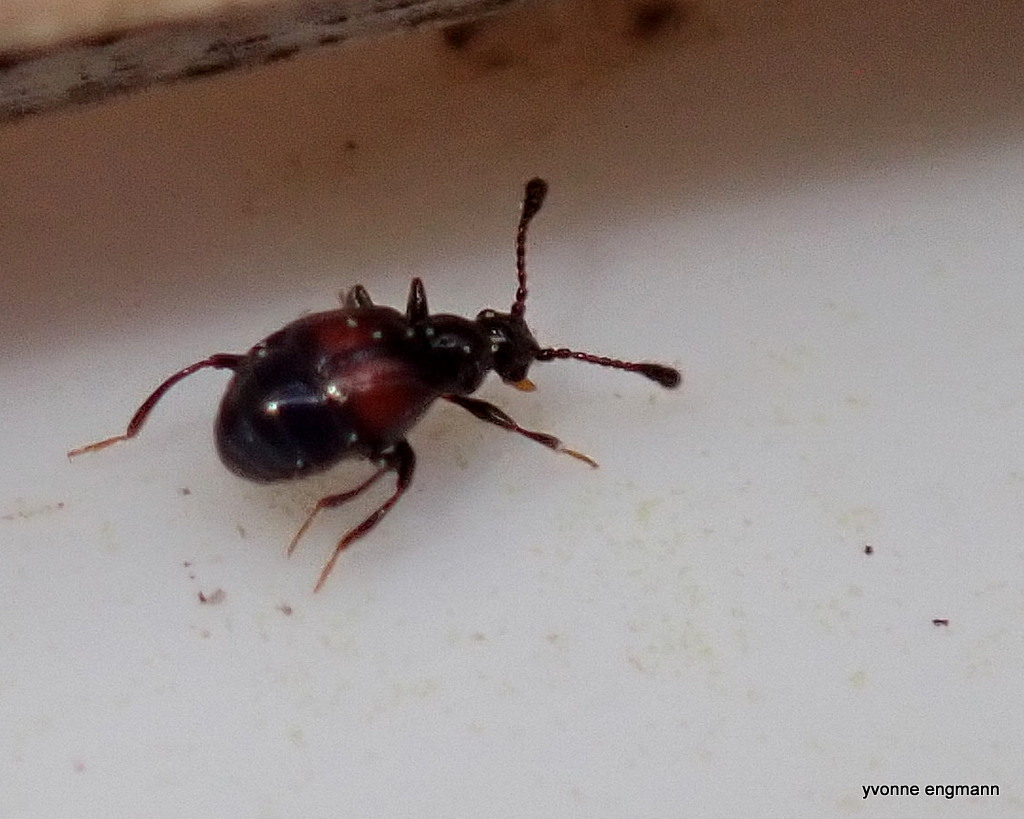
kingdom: Animalia
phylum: Arthropoda
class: Insecta
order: Coleoptera
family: Staphylinidae
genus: Fagniezia
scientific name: Fagniezia impressa
